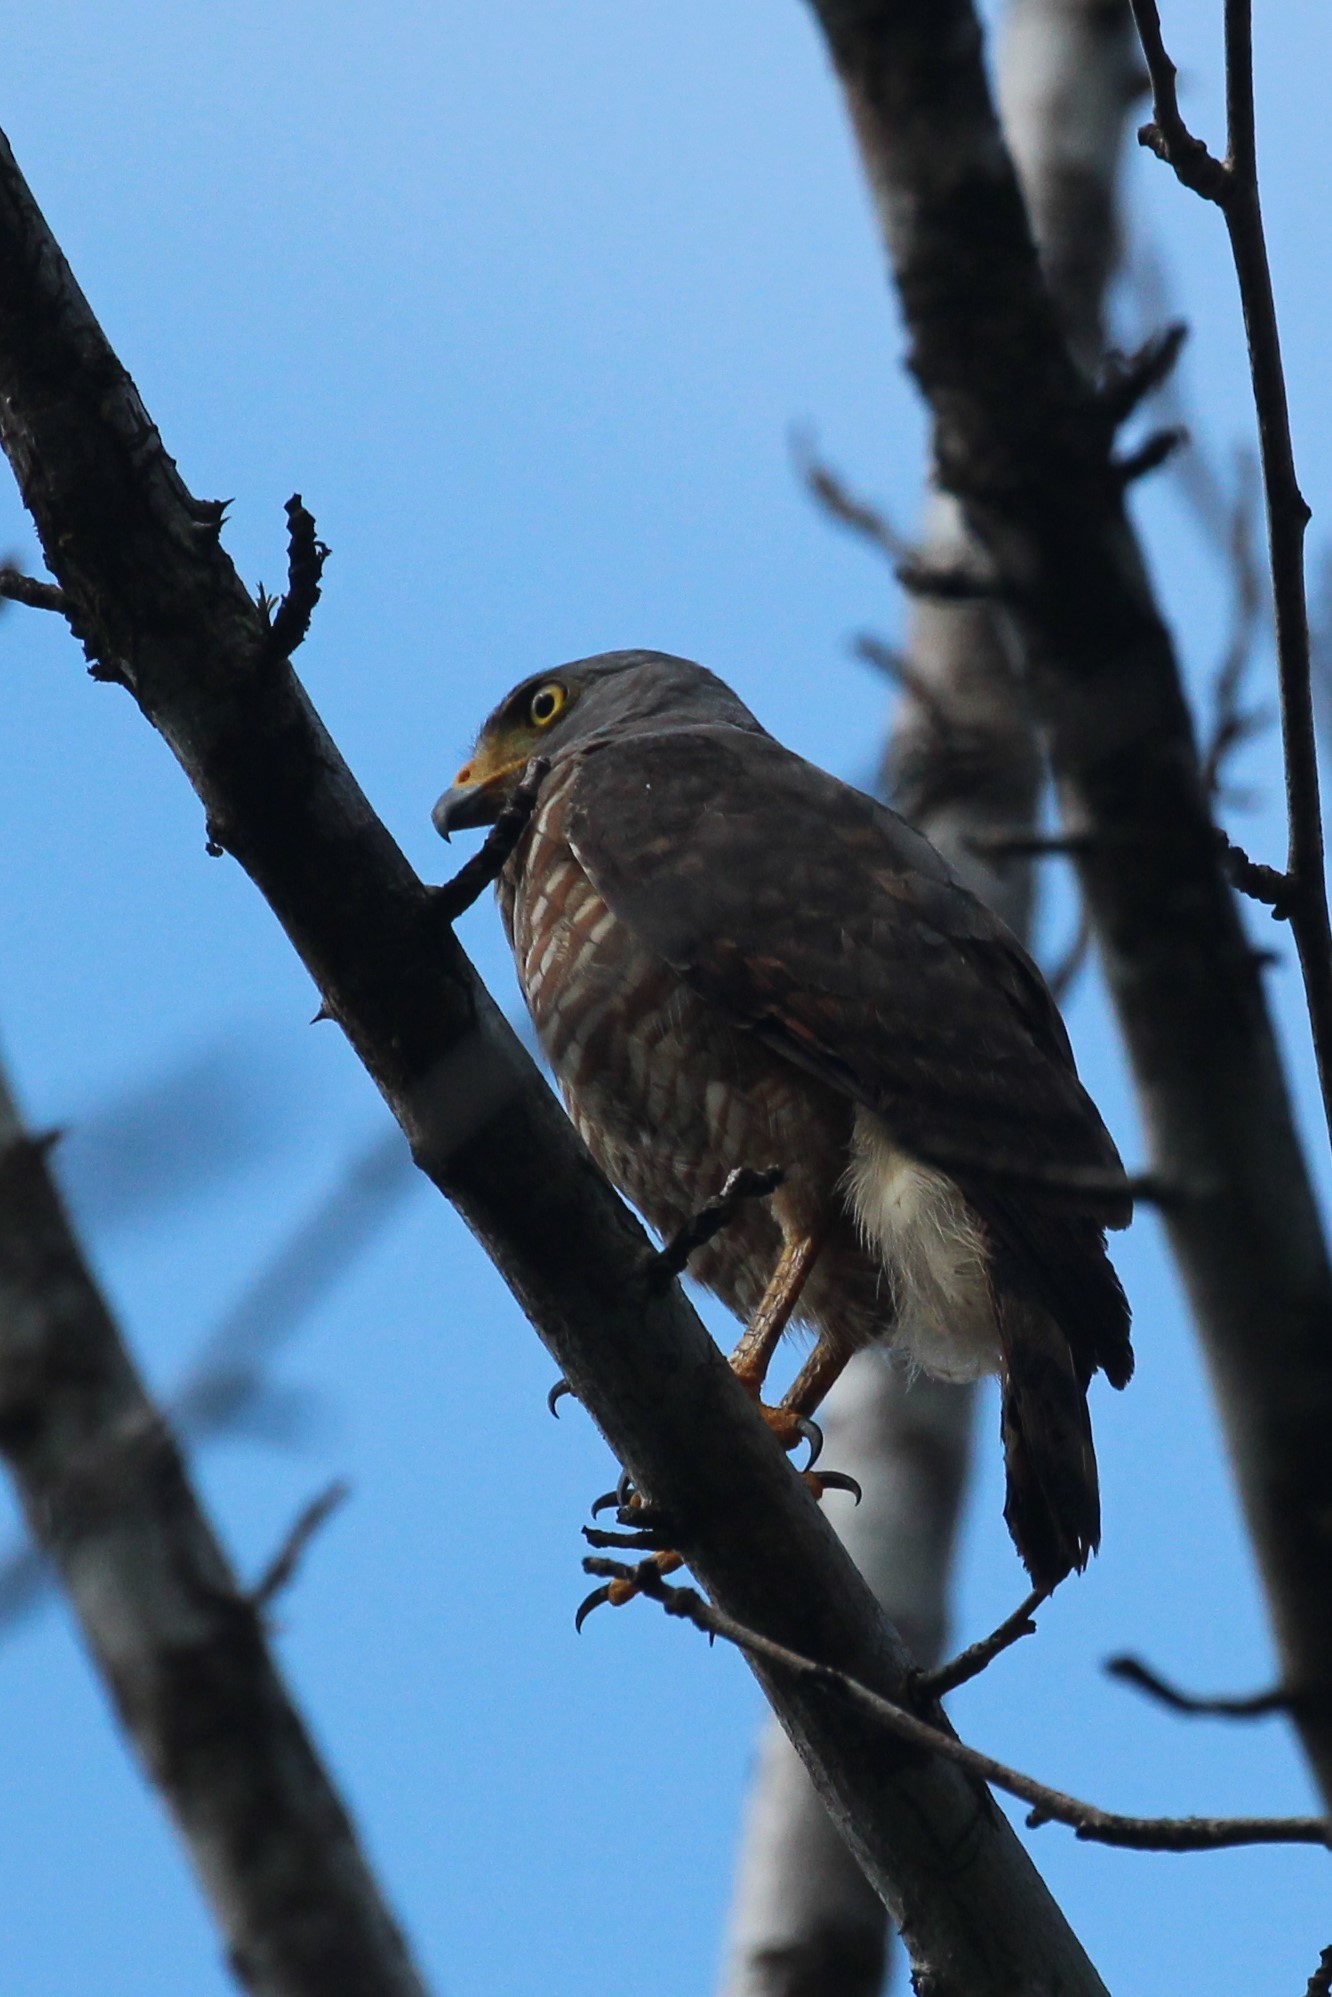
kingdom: Animalia
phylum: Chordata
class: Aves
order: Accipitriformes
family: Accipitridae
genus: Rupornis
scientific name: Rupornis magnirostris
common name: Roadside hawk
